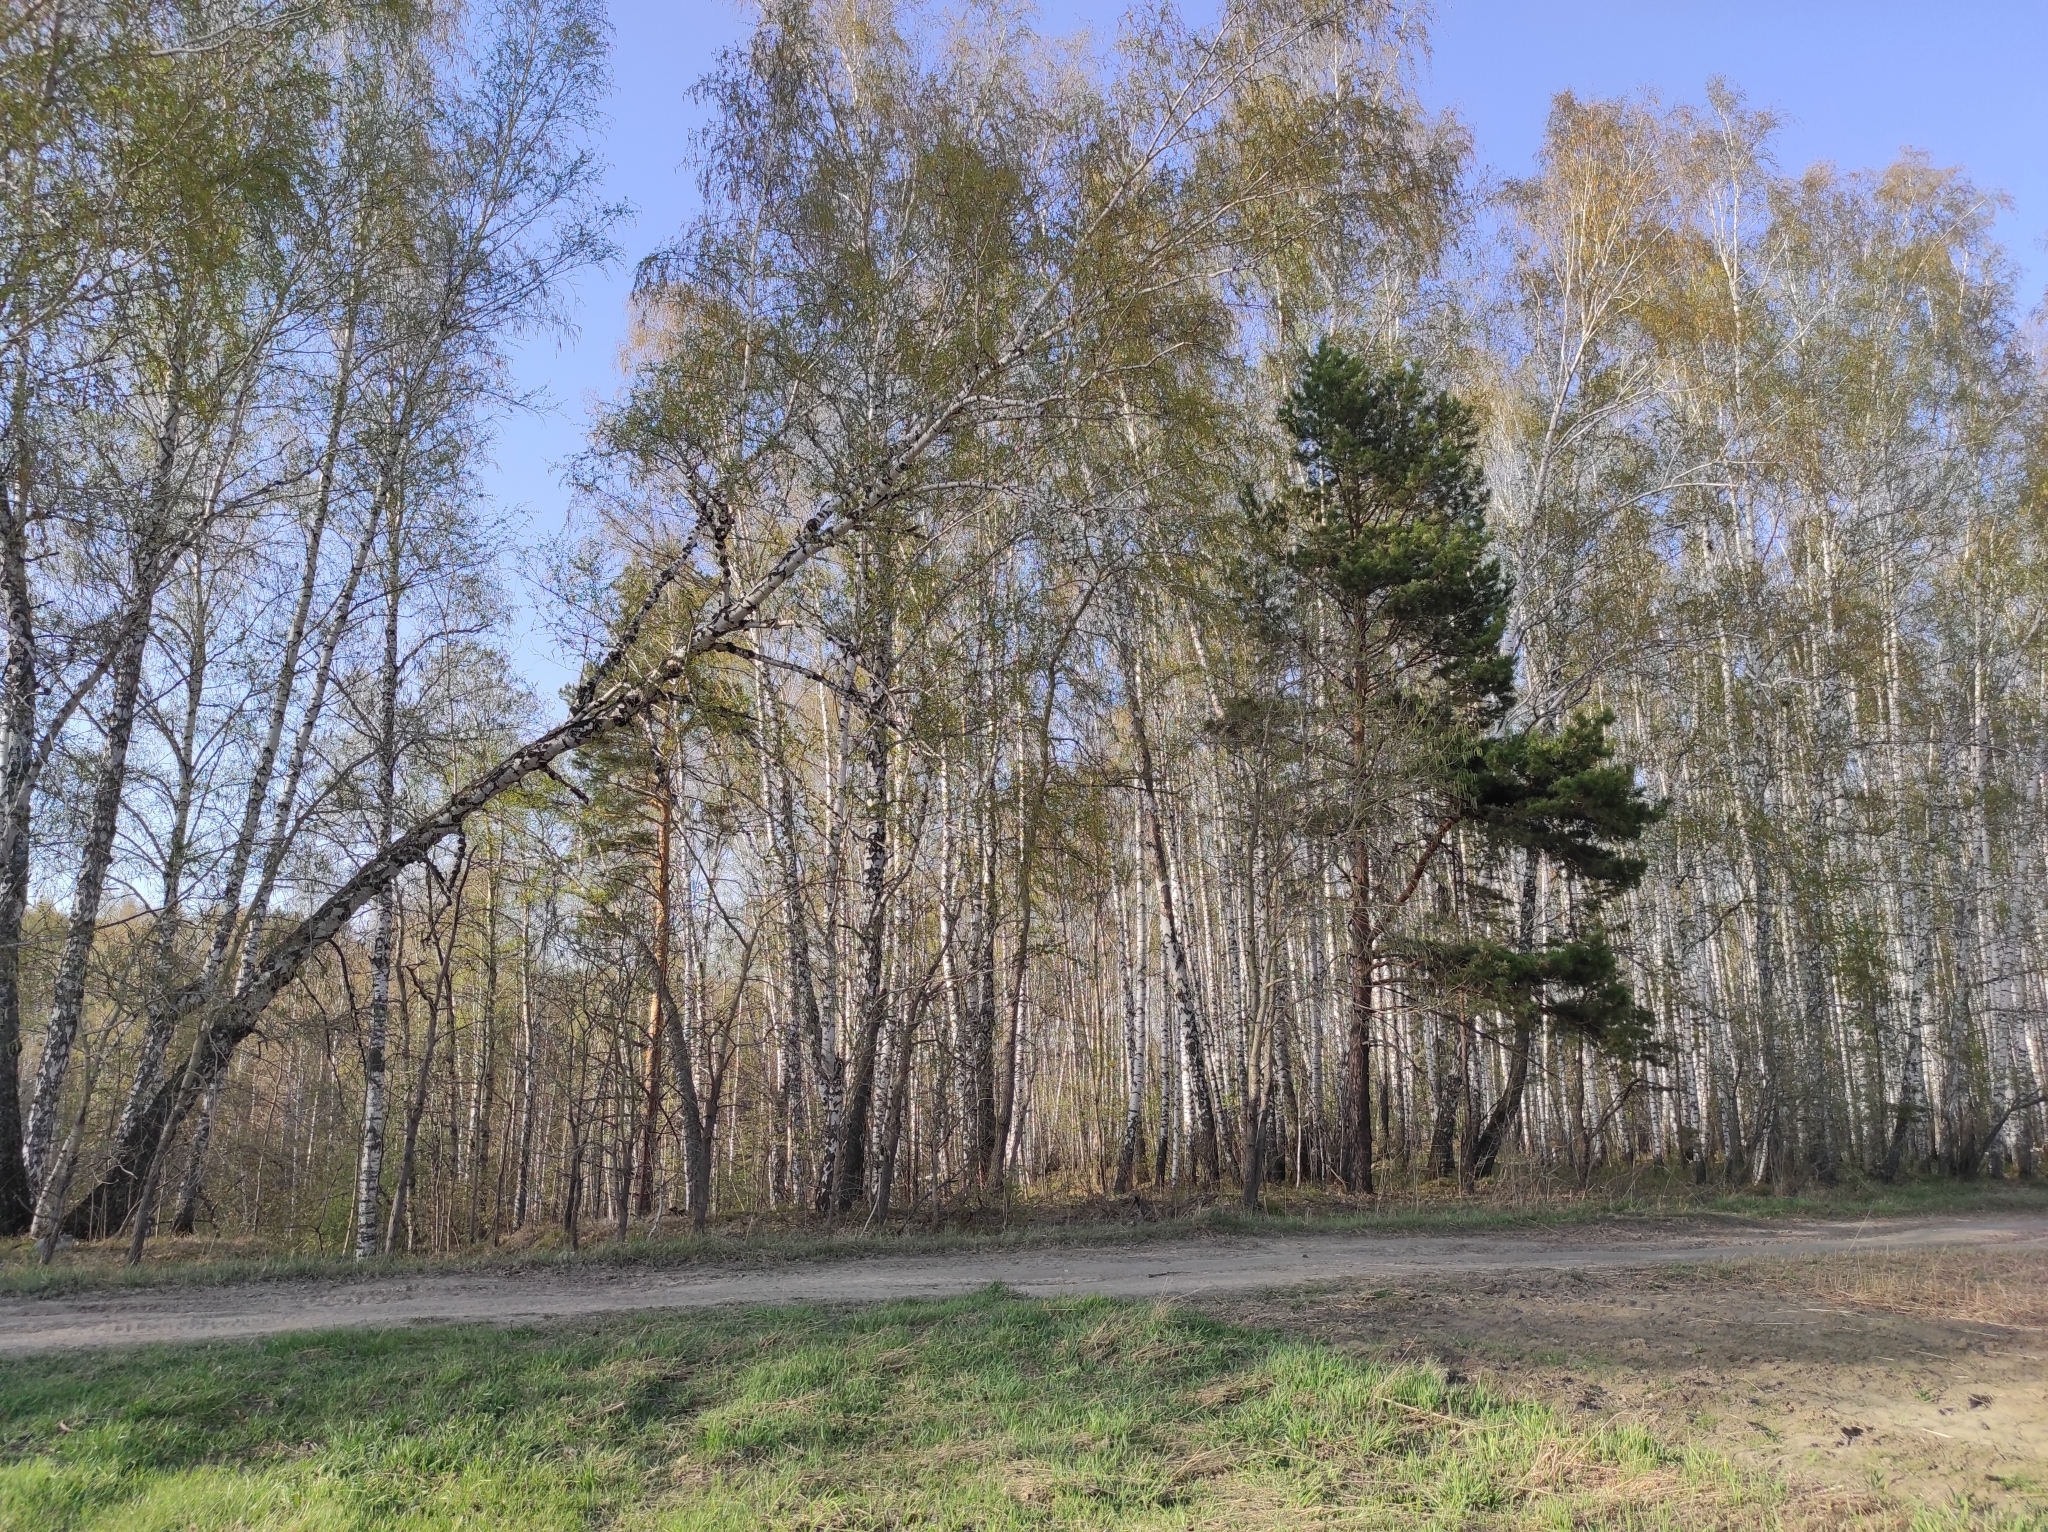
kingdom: Plantae
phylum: Tracheophyta
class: Pinopsida
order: Pinales
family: Pinaceae
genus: Pinus
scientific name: Pinus sylvestris
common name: Scots pine
